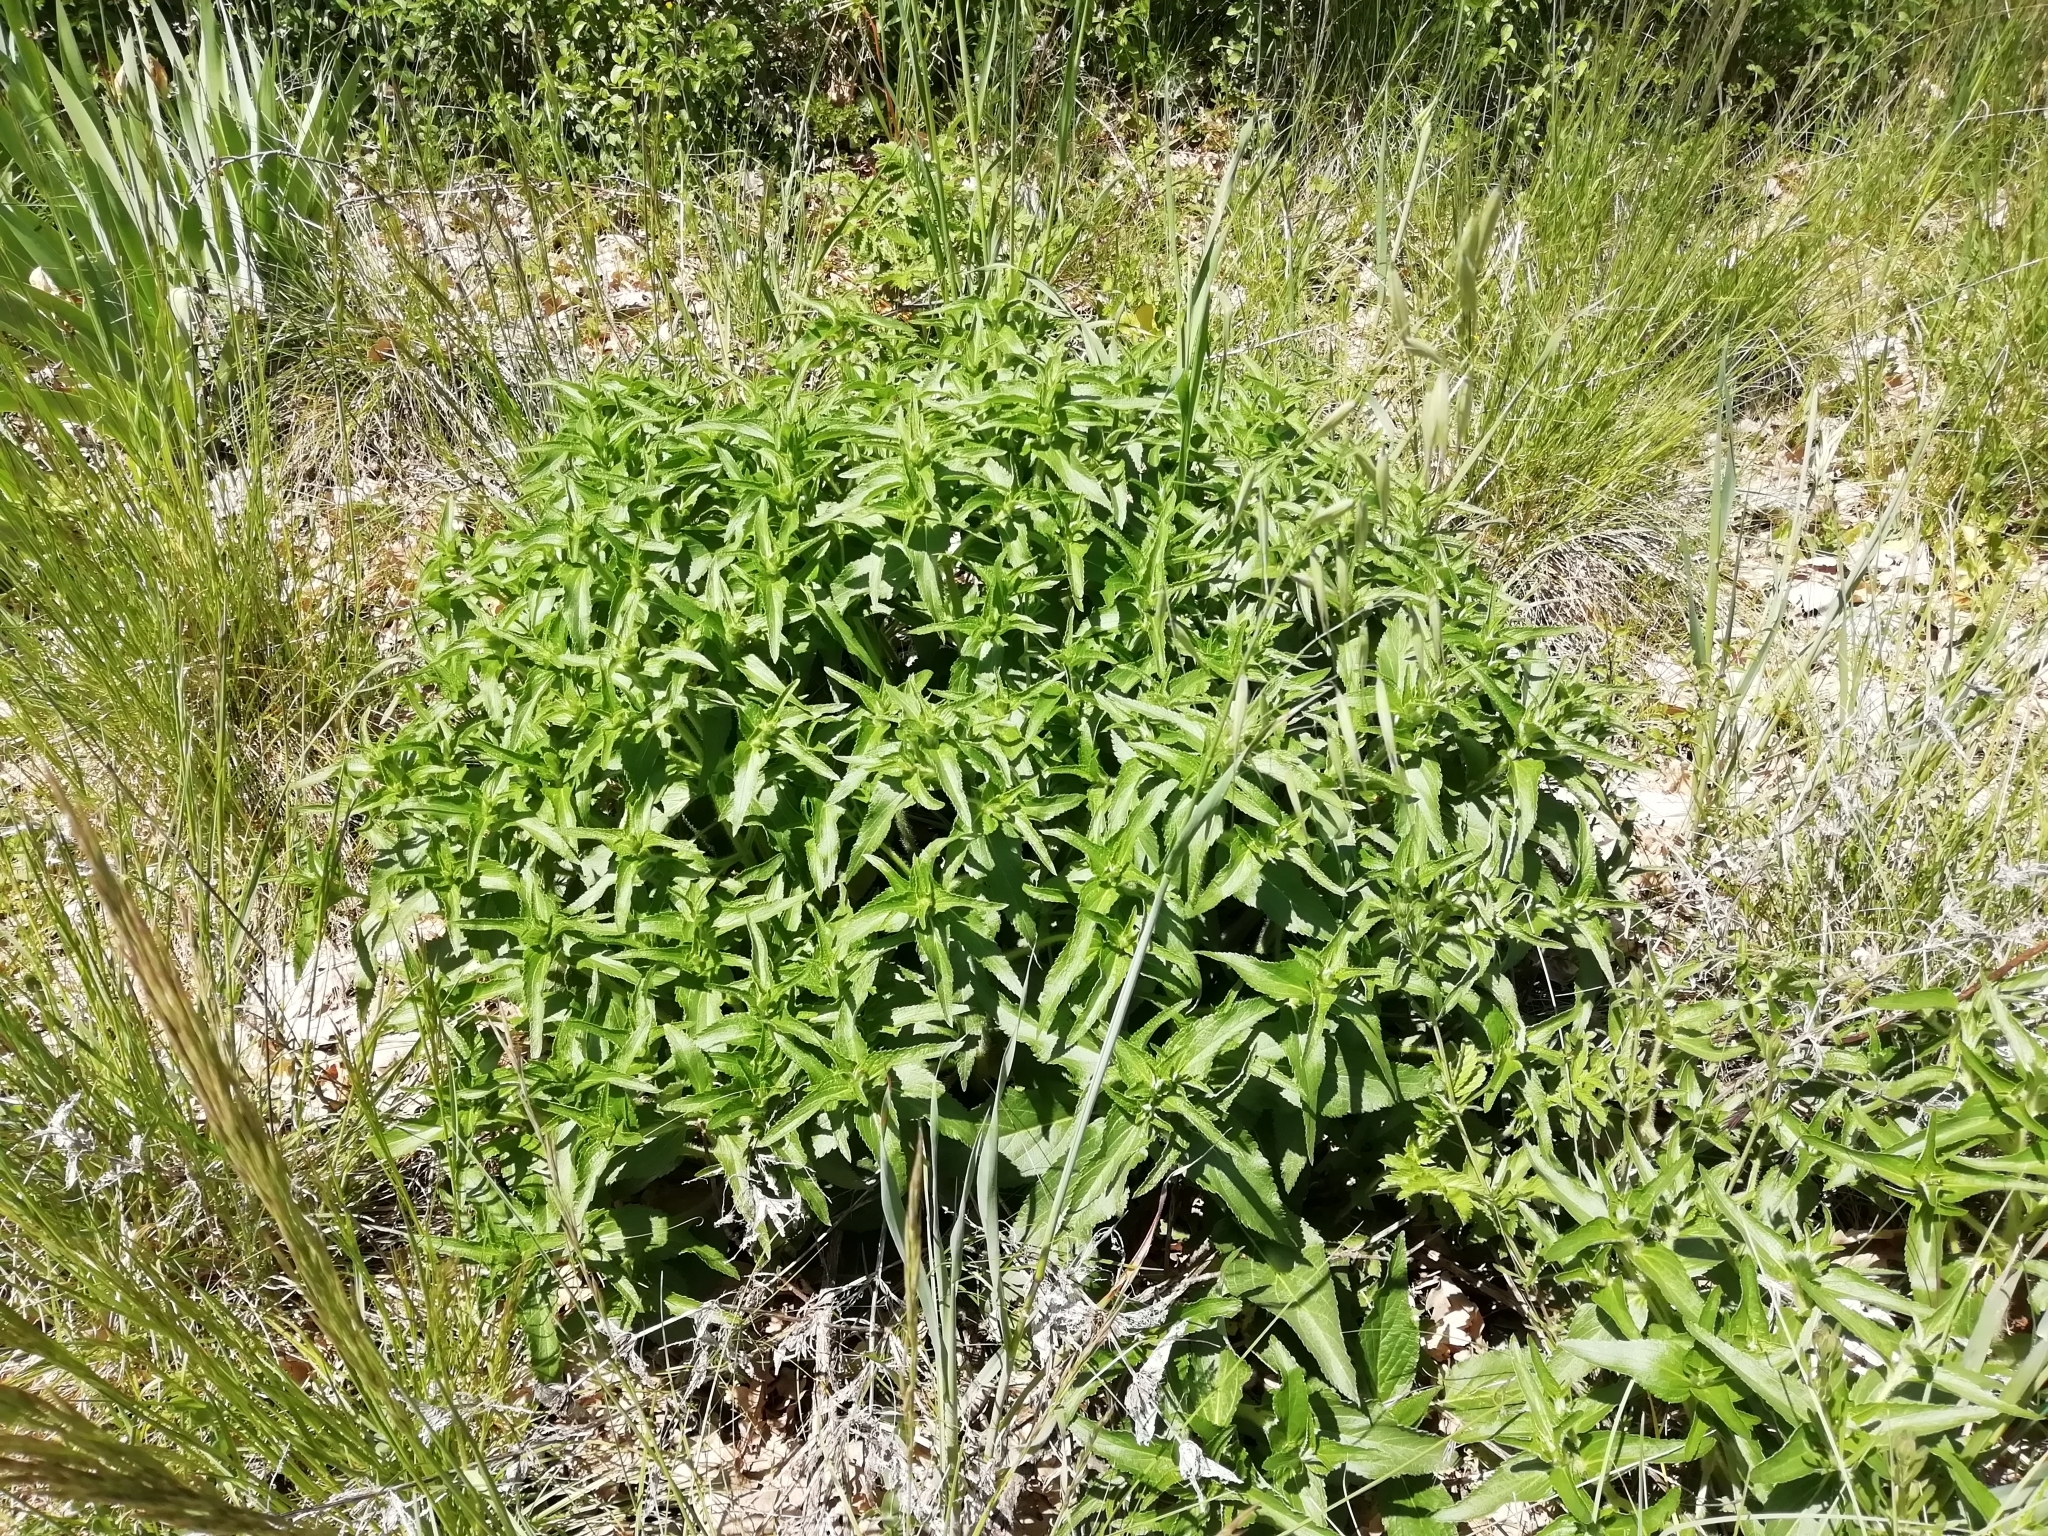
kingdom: Plantae
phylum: Tracheophyta
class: Magnoliopsida
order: Lamiales
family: Lamiaceae
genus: Phlomis
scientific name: Phlomis herba-venti
